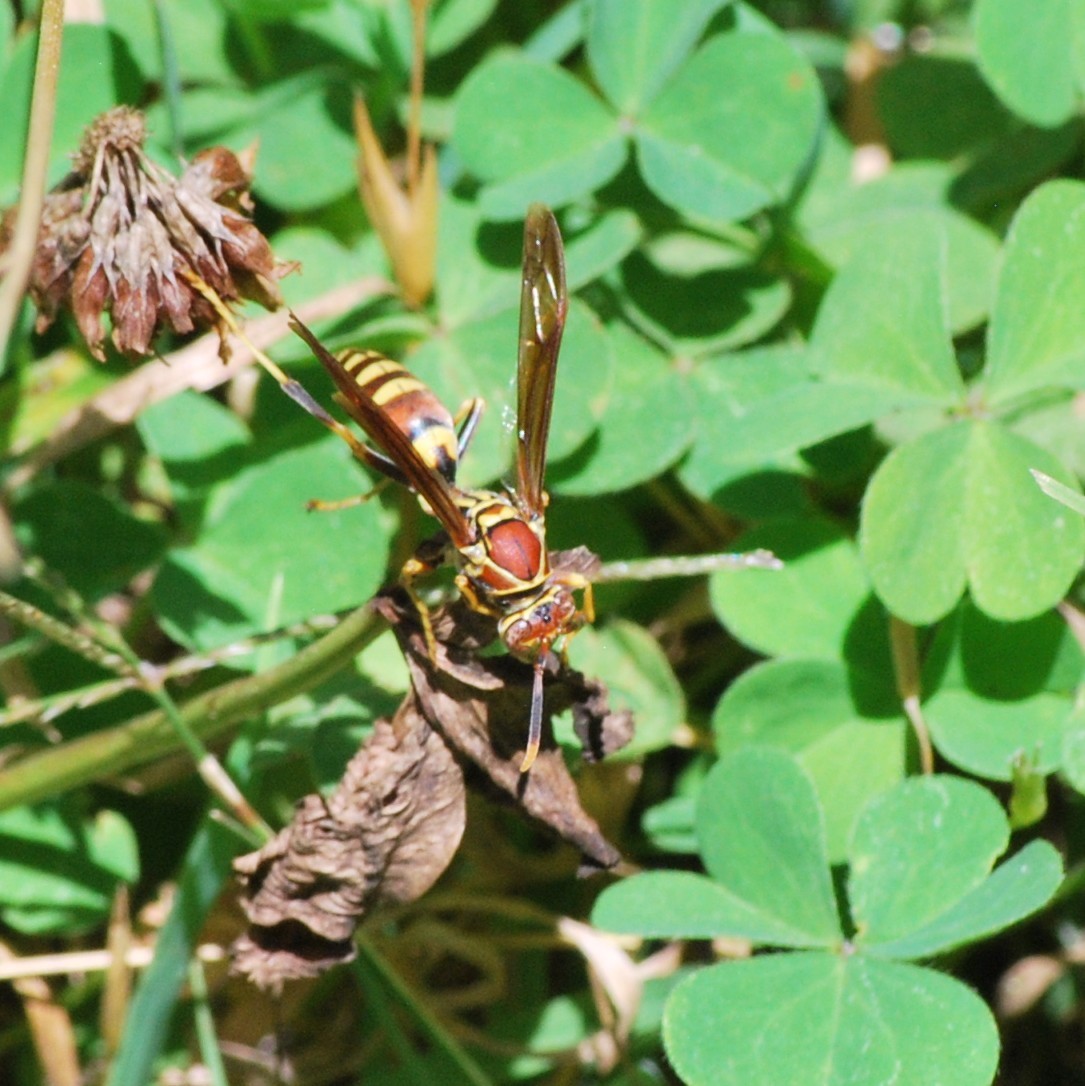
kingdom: Animalia
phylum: Arthropoda
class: Insecta
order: Hymenoptera
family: Eumenidae
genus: Polistes
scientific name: Polistes exclamans
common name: Paper wasp
